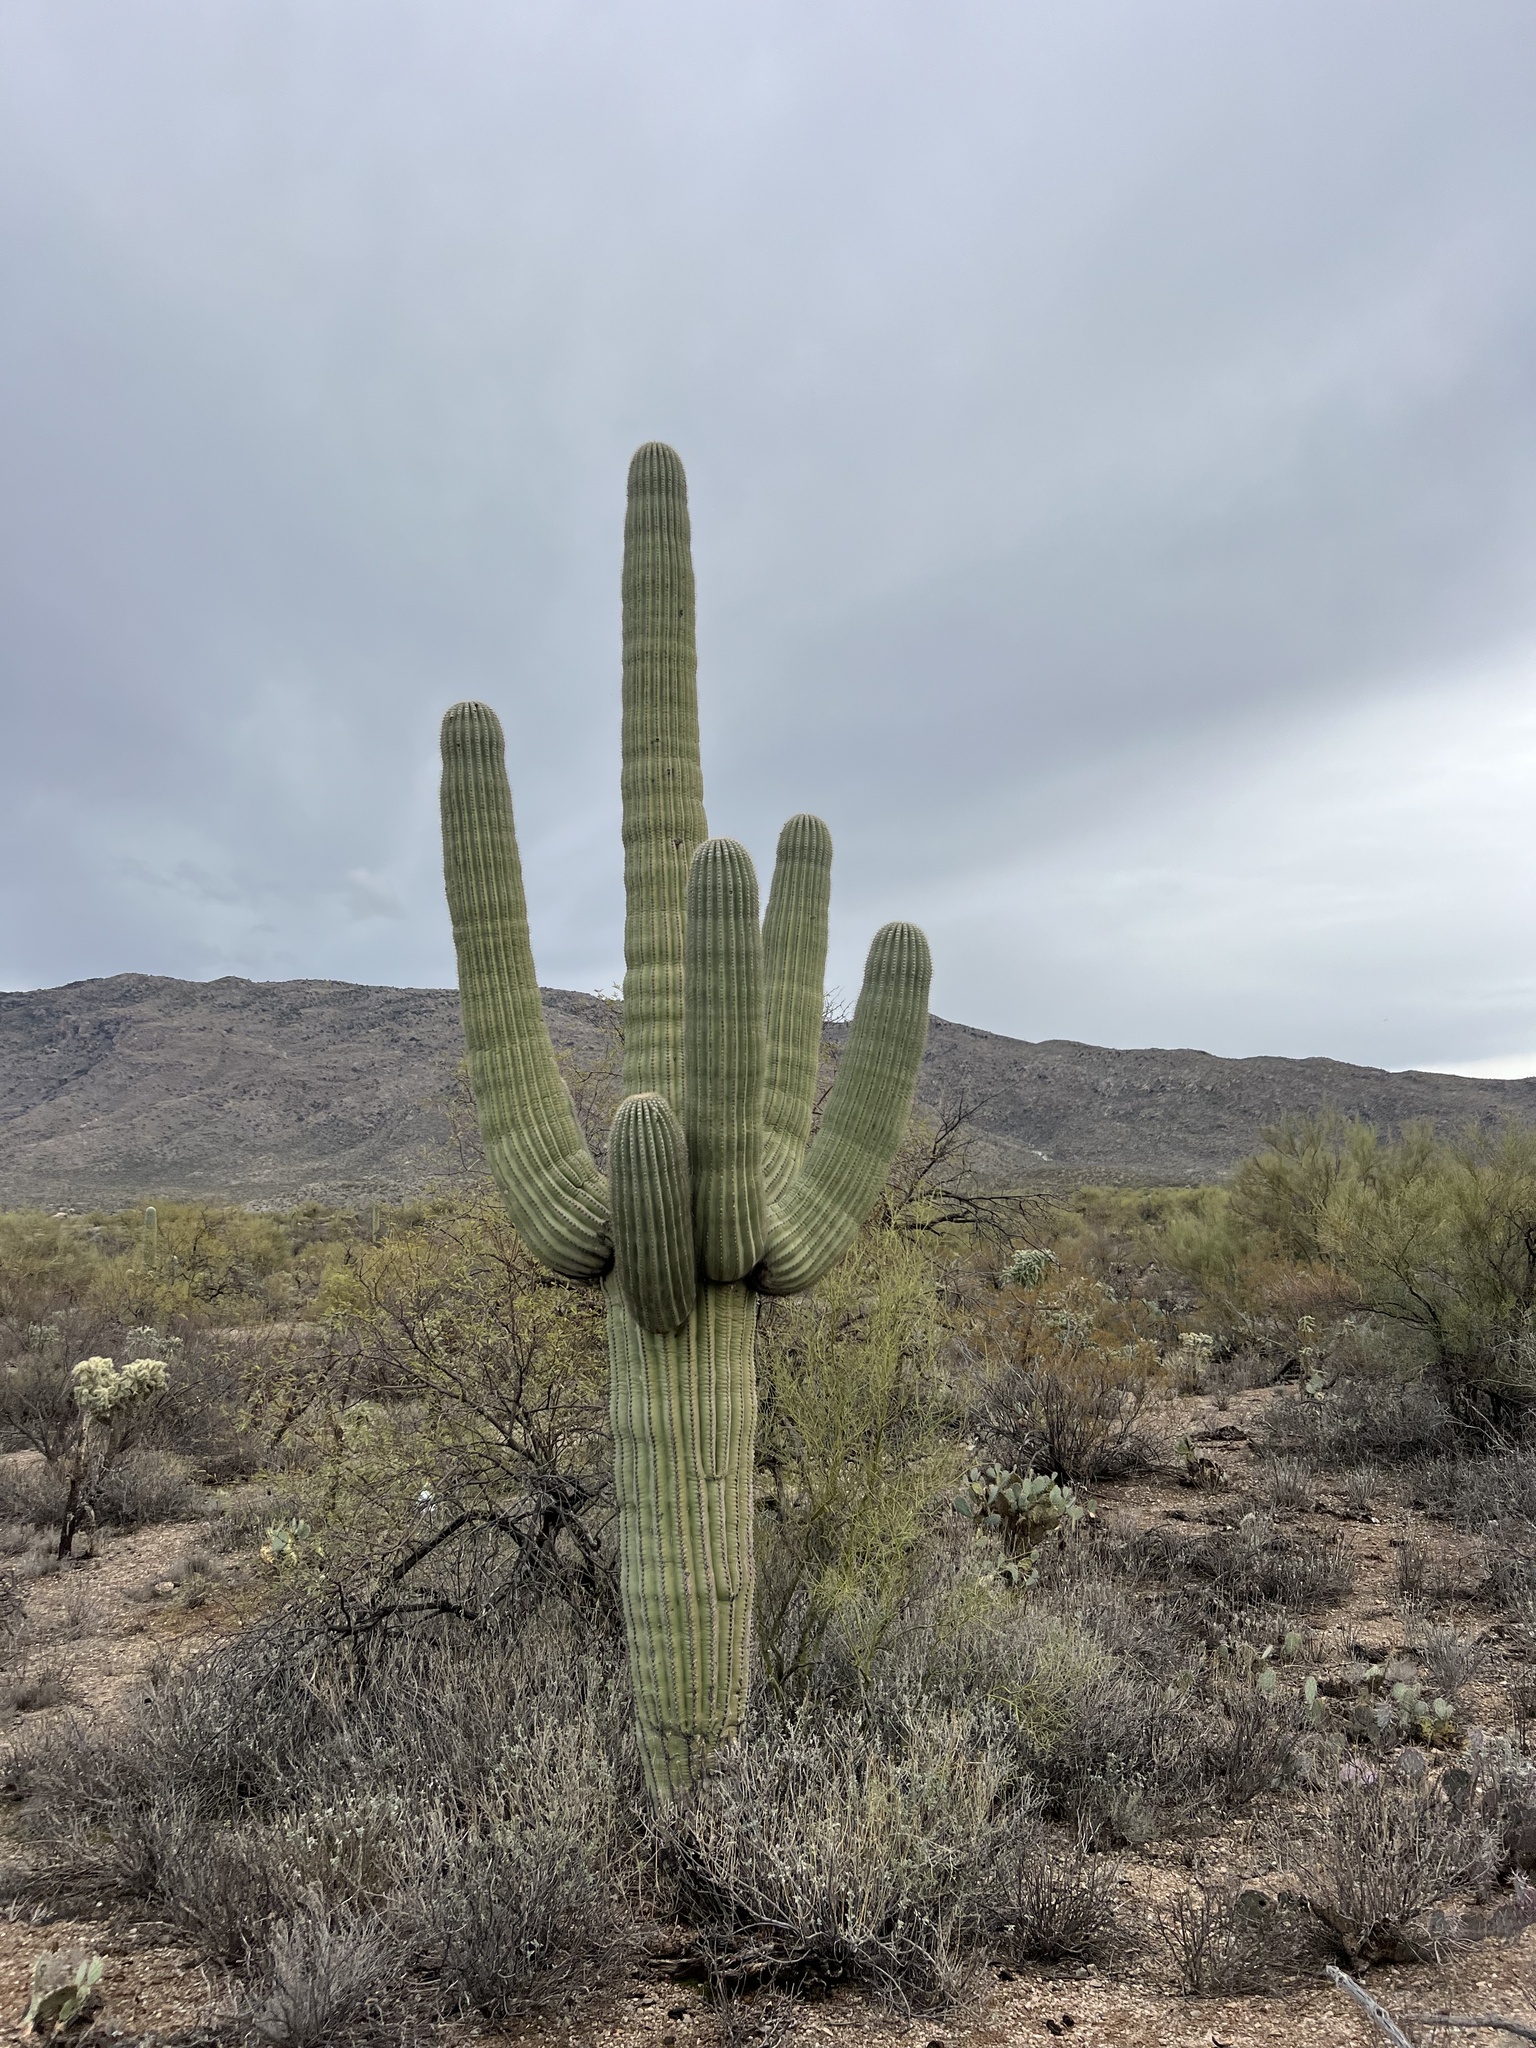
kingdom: Plantae
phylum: Tracheophyta
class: Magnoliopsida
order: Caryophyllales
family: Cactaceae
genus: Carnegiea
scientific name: Carnegiea gigantea
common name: Saguaro
